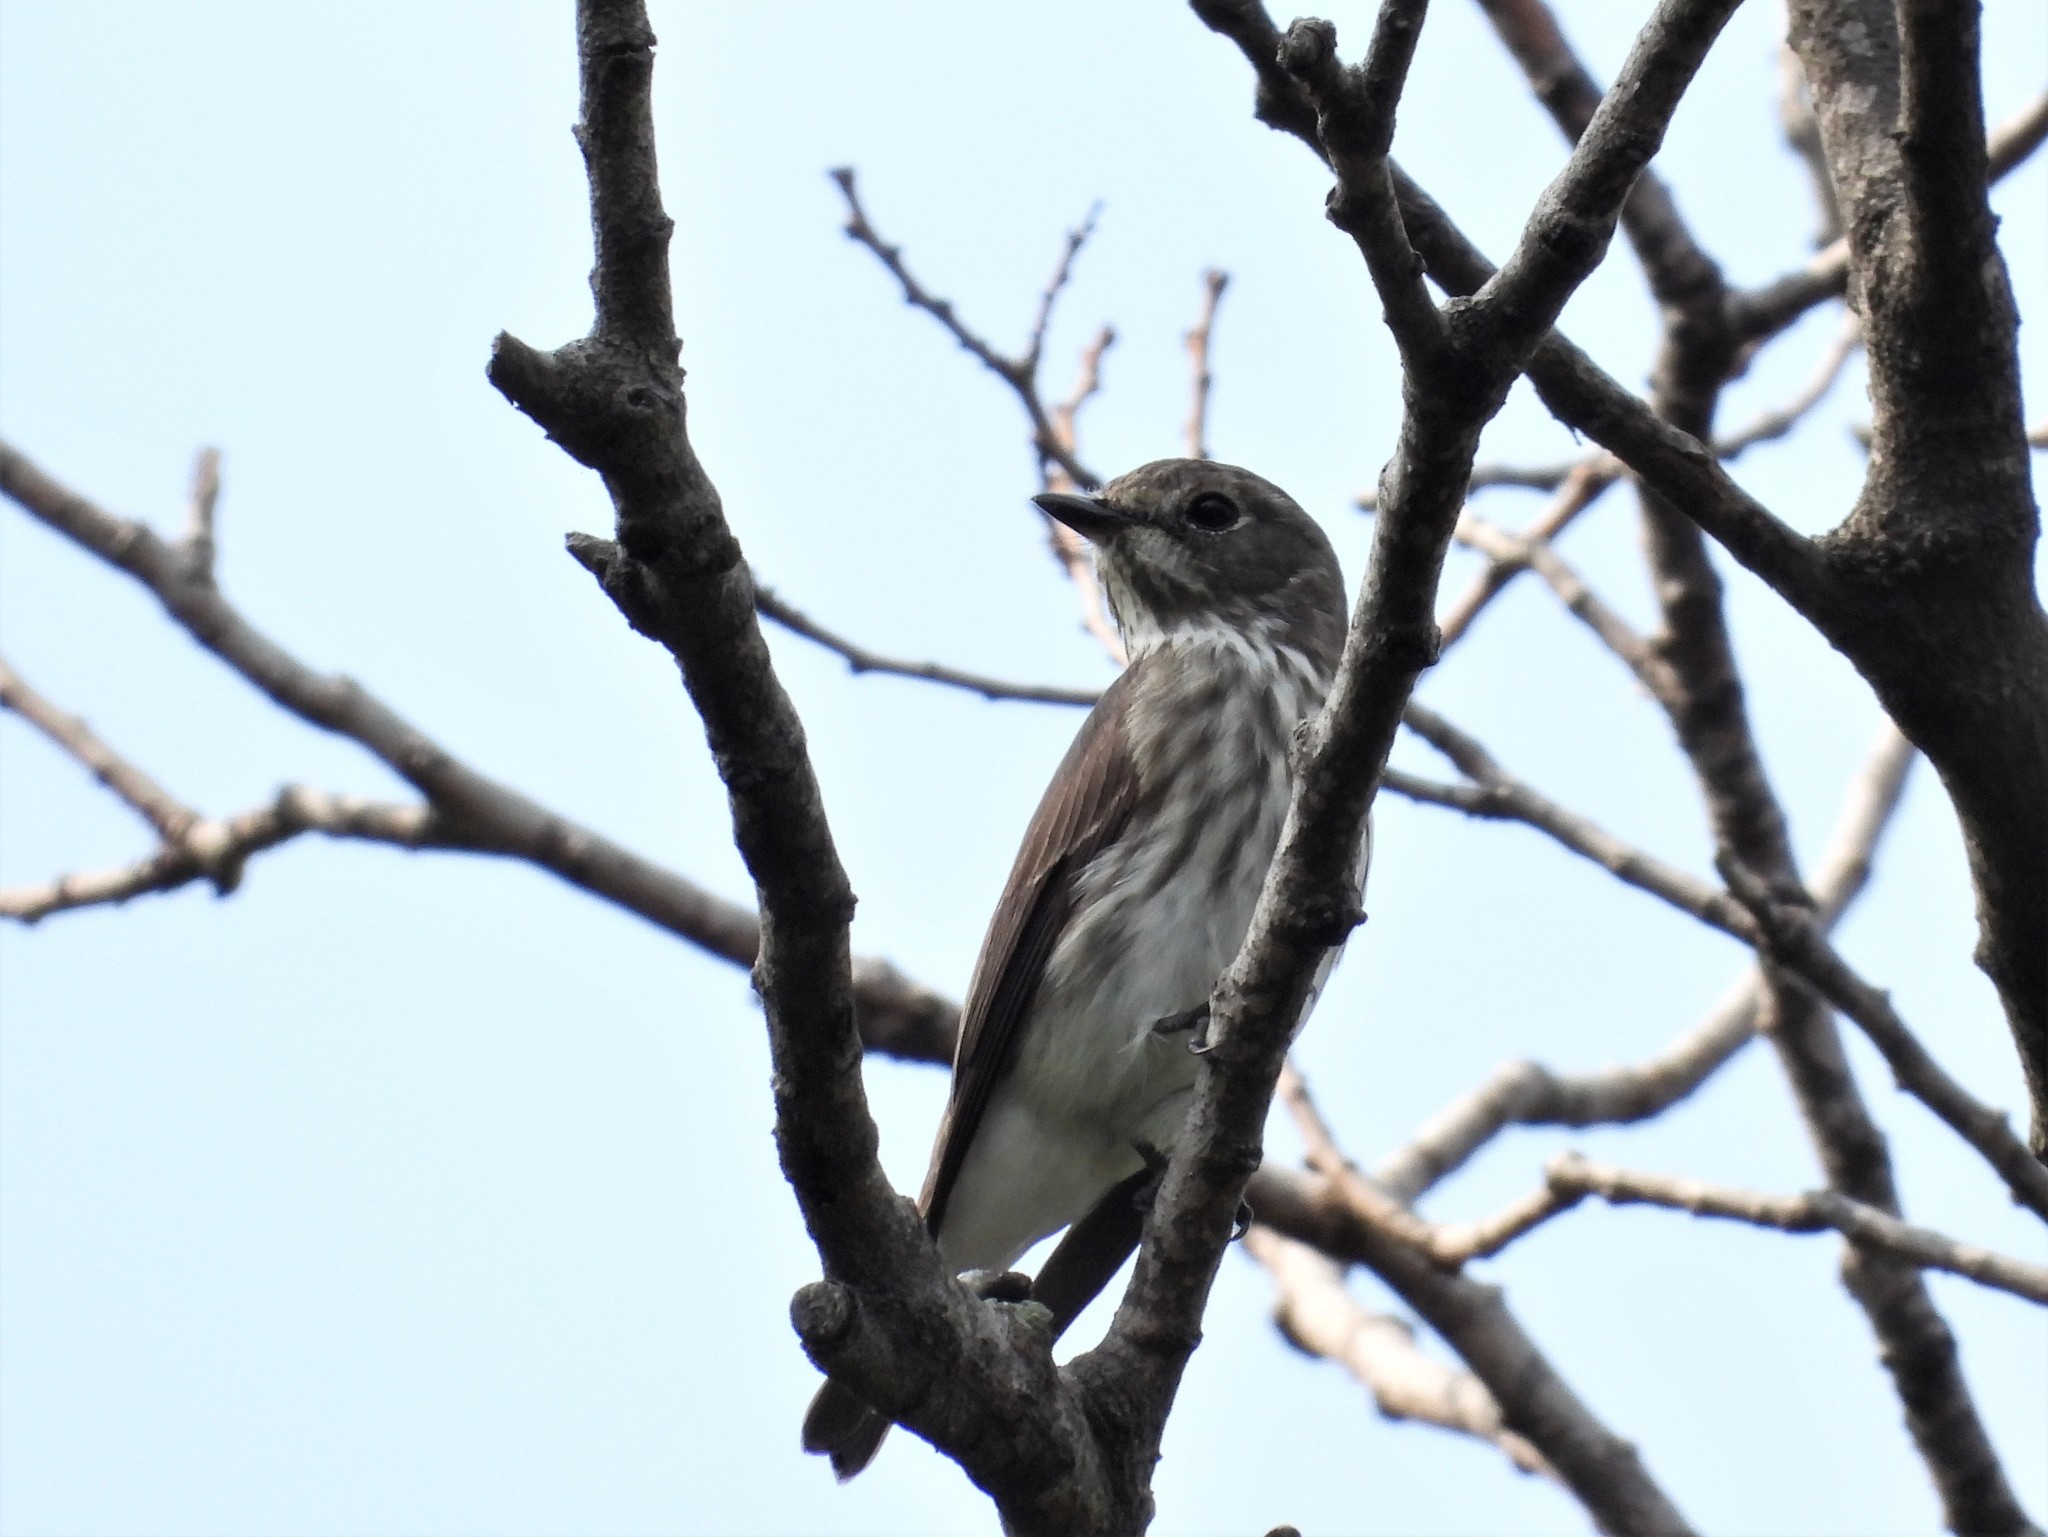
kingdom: Animalia
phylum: Chordata
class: Aves
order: Passeriformes
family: Muscicapidae
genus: Muscicapa
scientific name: Muscicapa griseisticta
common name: Gray-streaked flycatcher
